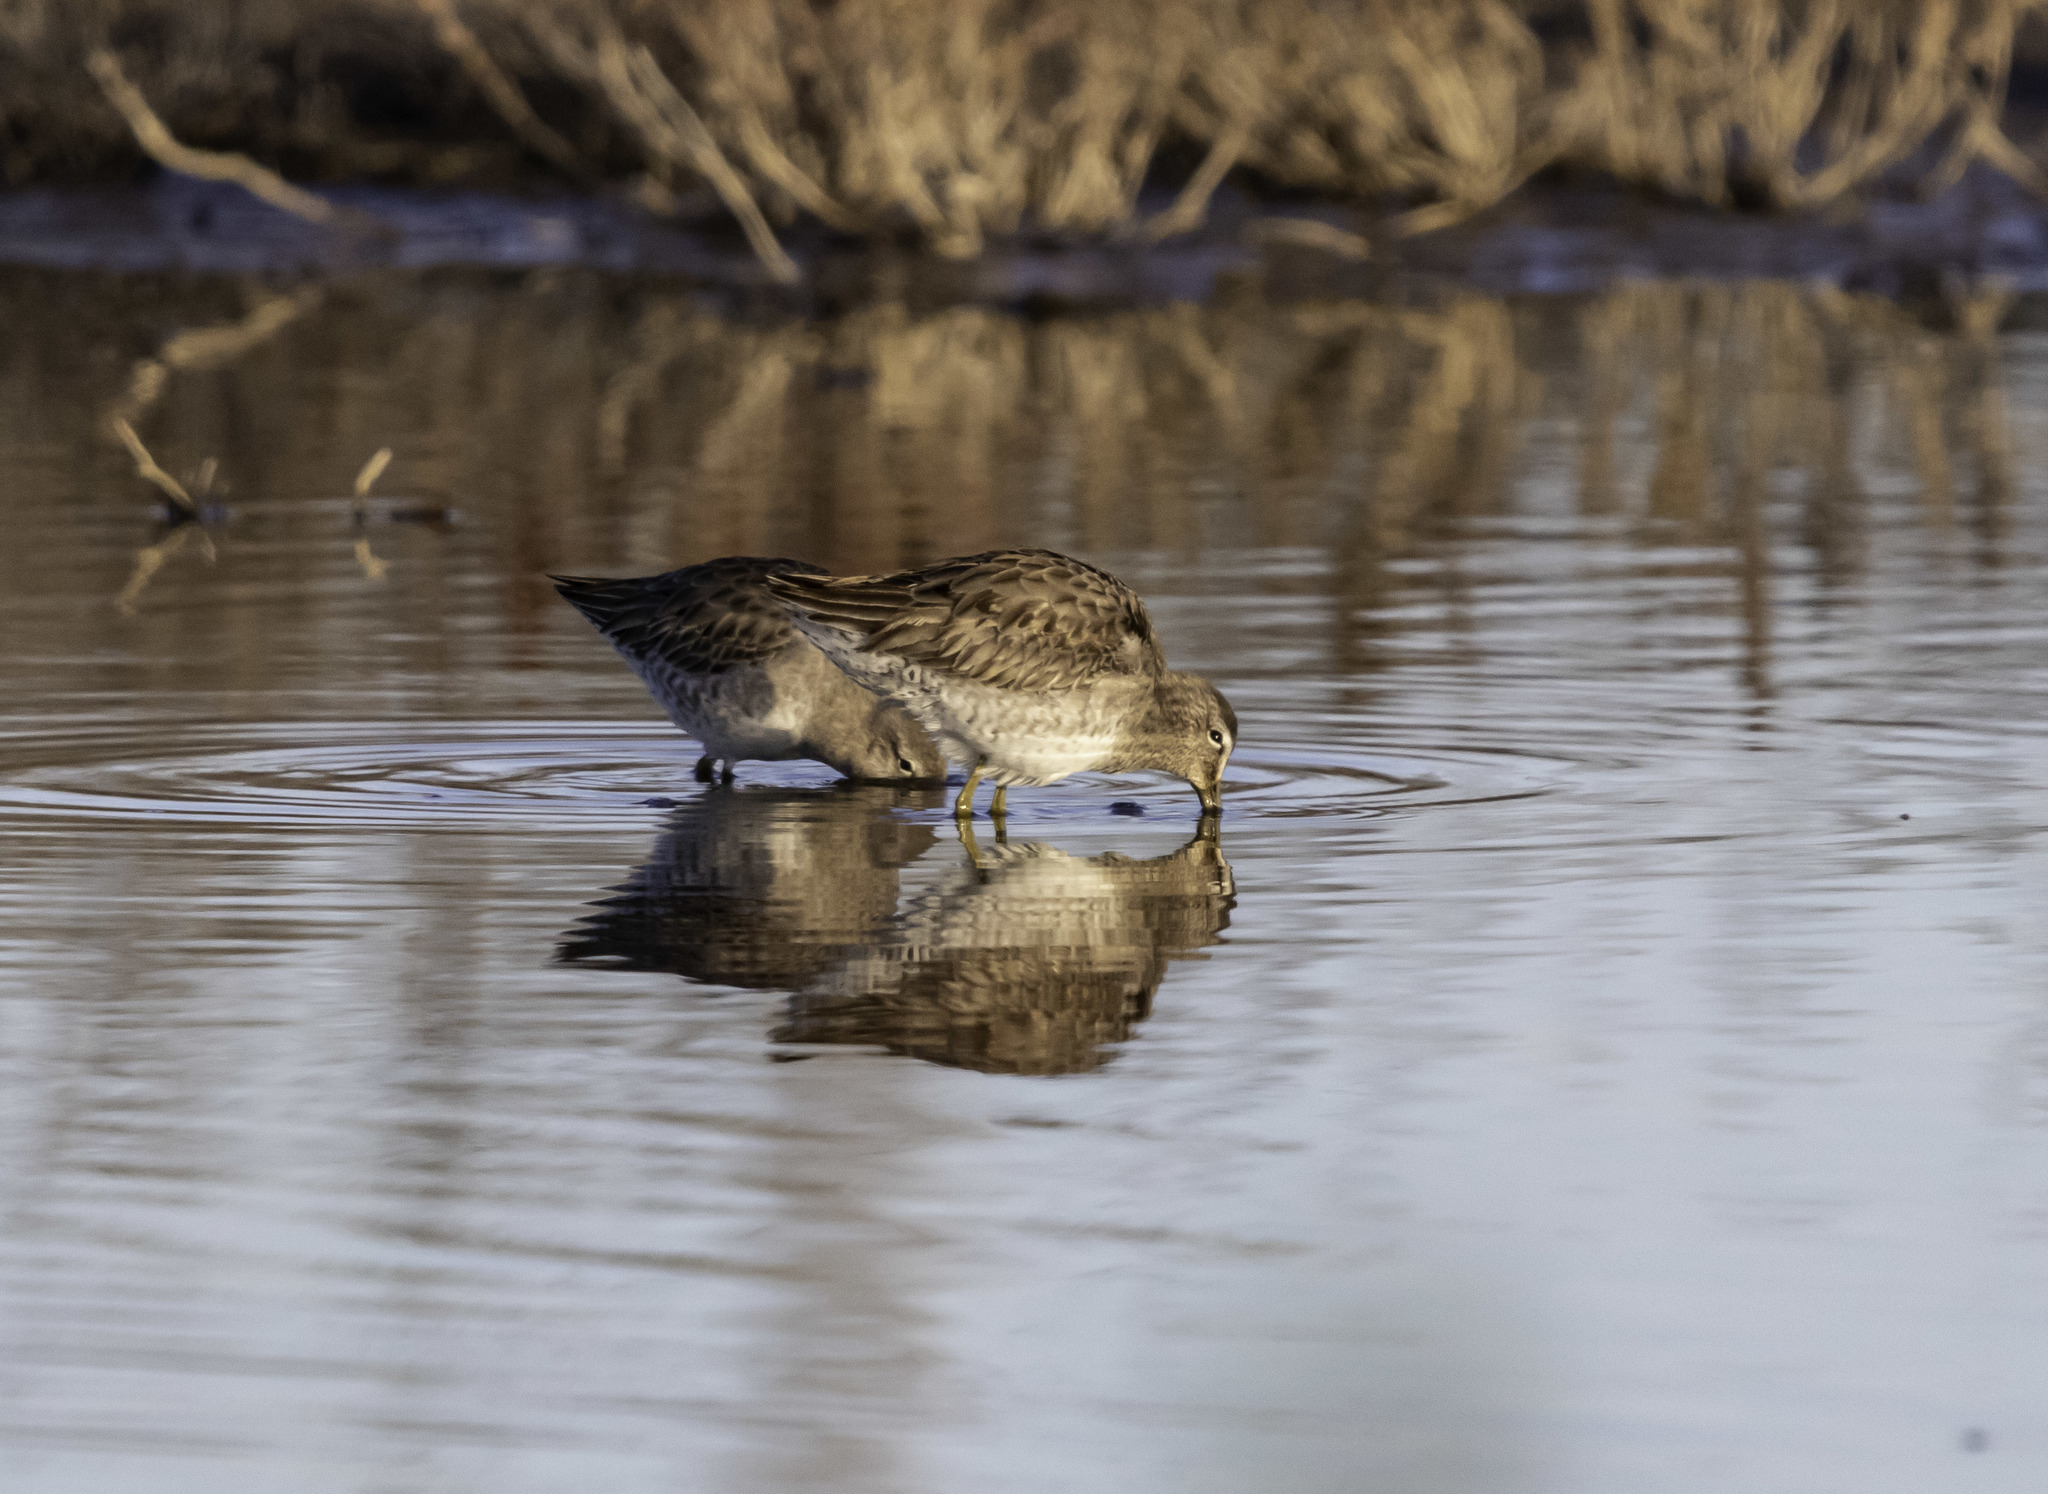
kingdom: Animalia
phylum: Chordata
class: Aves
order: Charadriiformes
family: Scolopacidae
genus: Limnodromus
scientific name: Limnodromus scolopaceus
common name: Long-billed dowitcher
